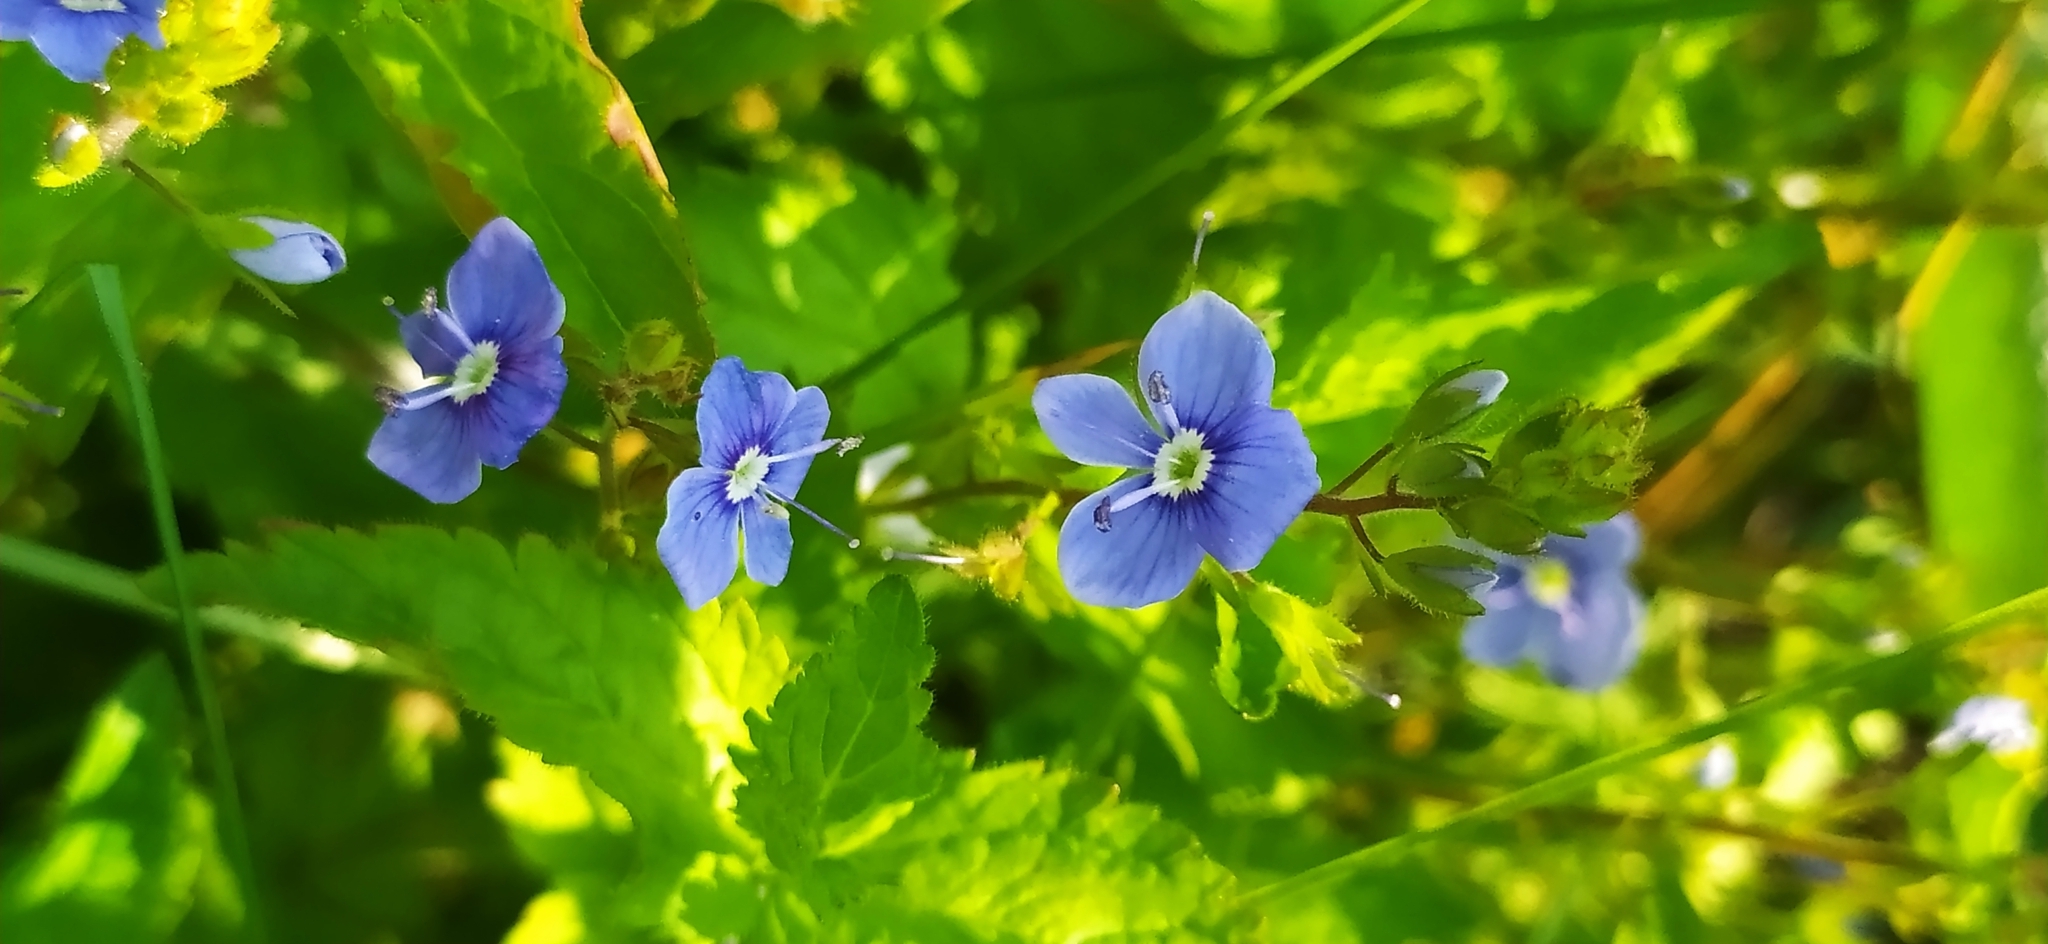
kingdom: Plantae
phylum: Tracheophyta
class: Magnoliopsida
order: Lamiales
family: Plantaginaceae
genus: Veronica
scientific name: Veronica chamaedrys
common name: Germander speedwell
